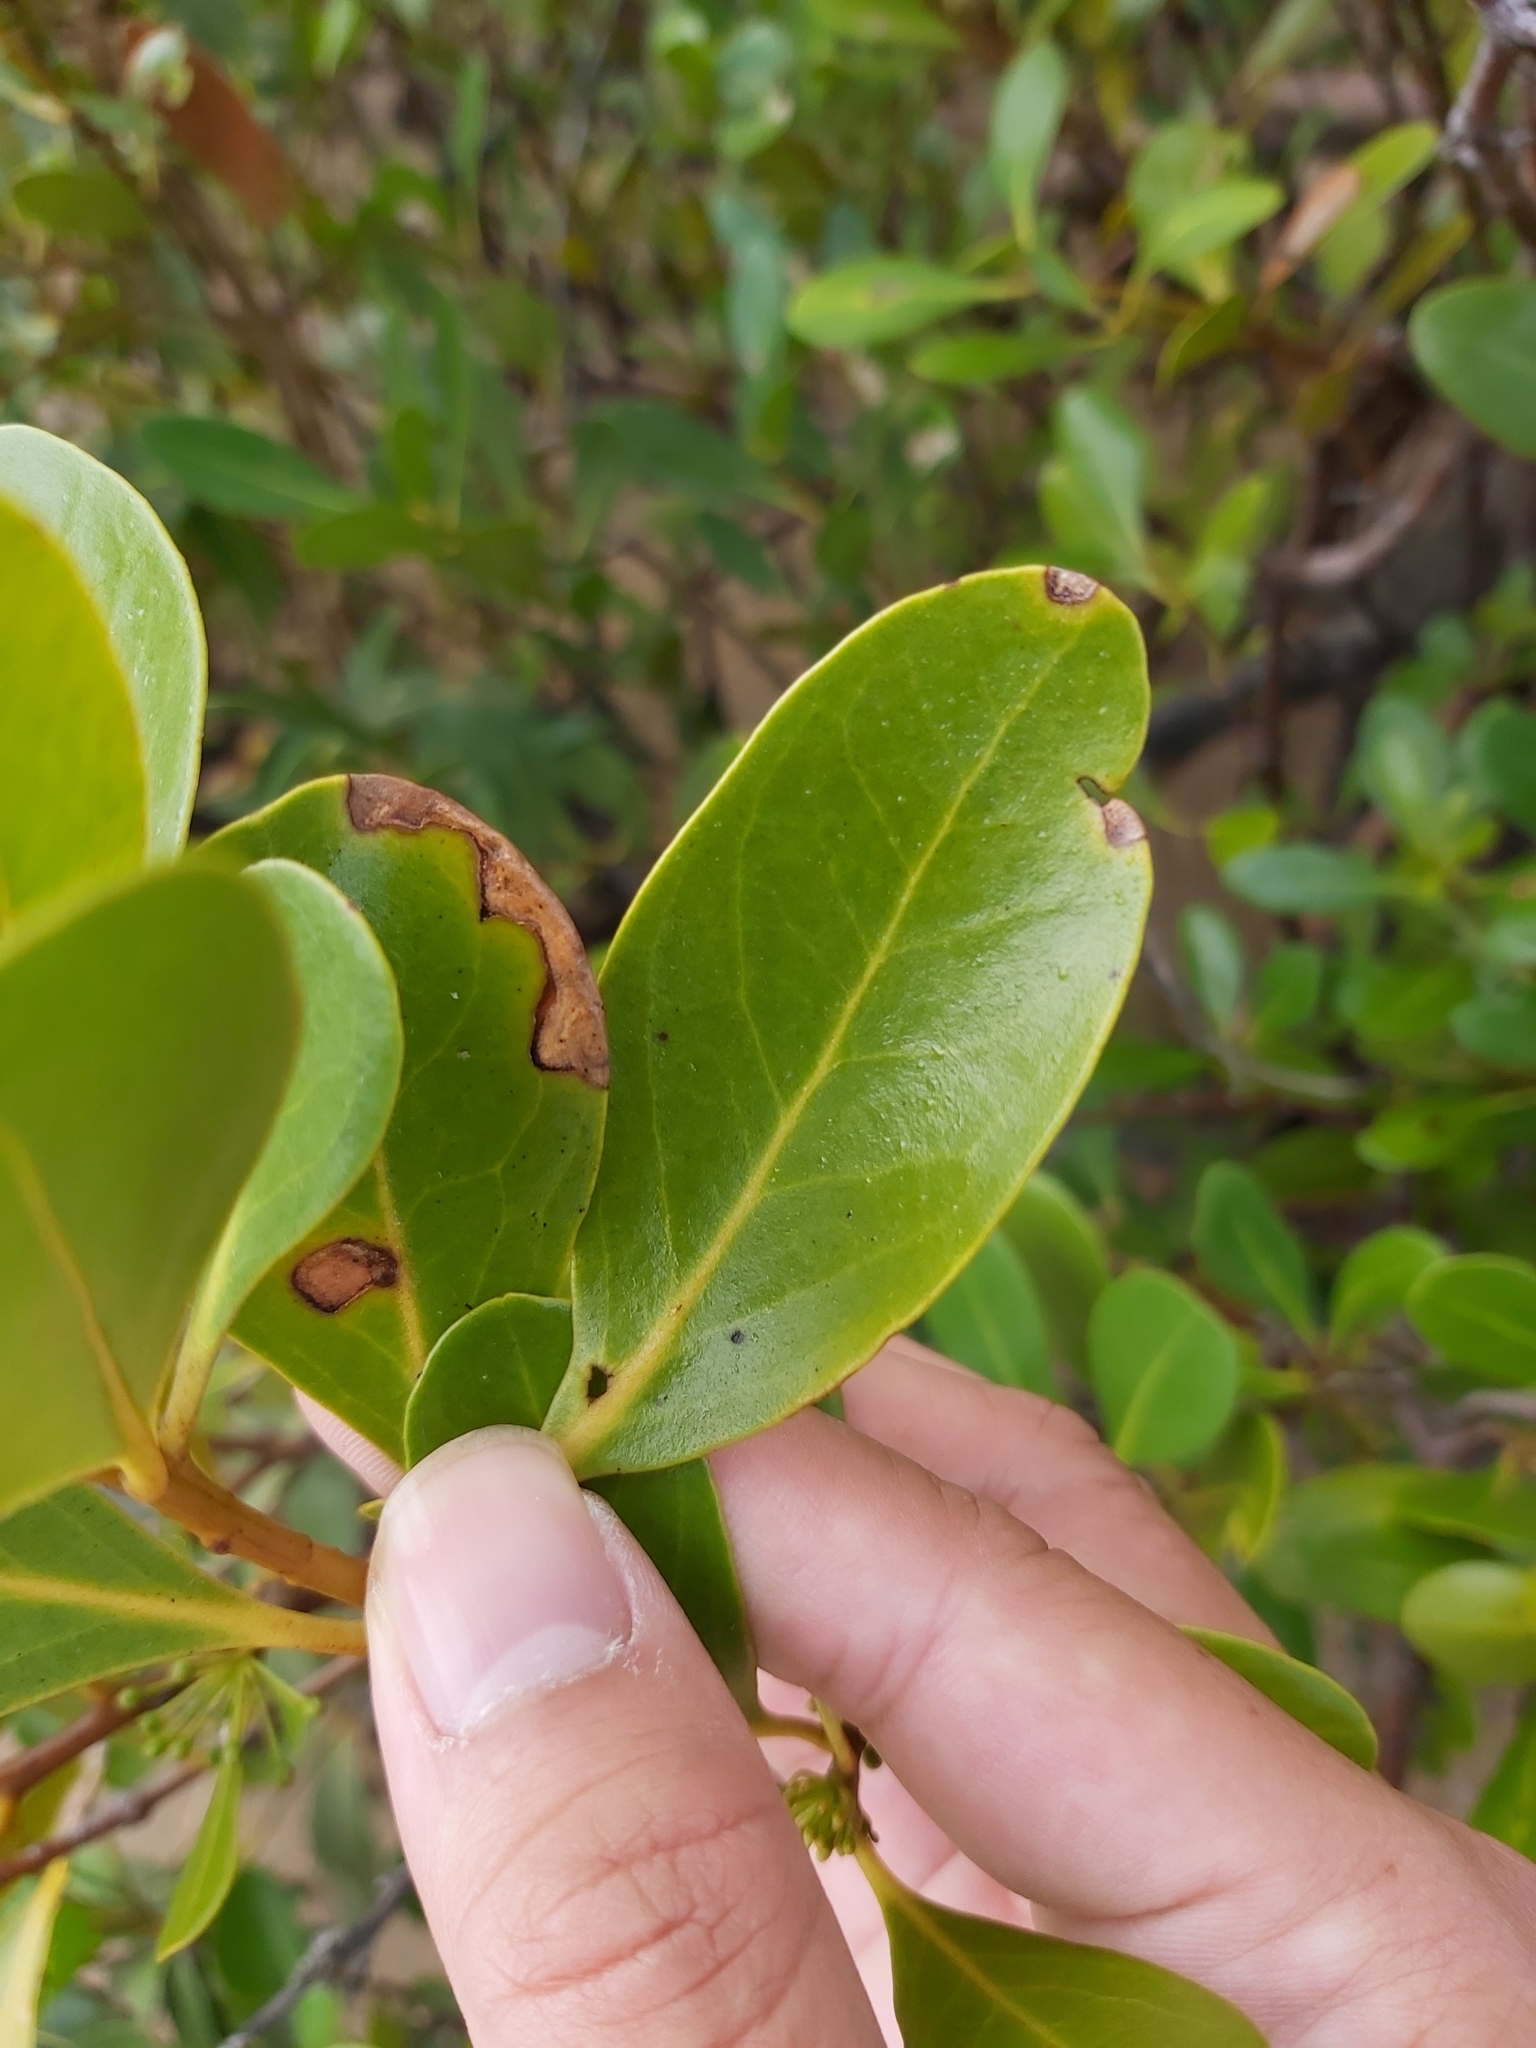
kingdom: Plantae
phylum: Tracheophyta
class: Magnoliopsida
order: Ericales
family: Primulaceae
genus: Aegiceras
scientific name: Aegiceras corniculatum
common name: River mangrove
